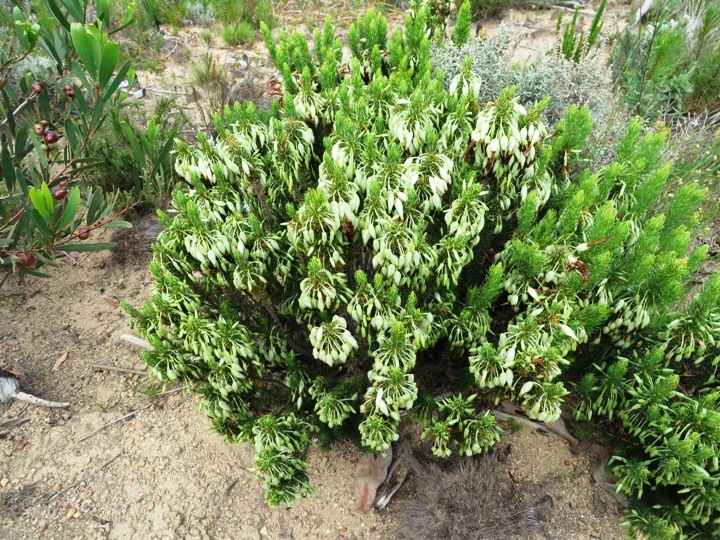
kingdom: Plantae
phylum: Tracheophyta
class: Magnoliopsida
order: Ericales
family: Ericaceae
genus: Erica
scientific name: Erica plukenetii
